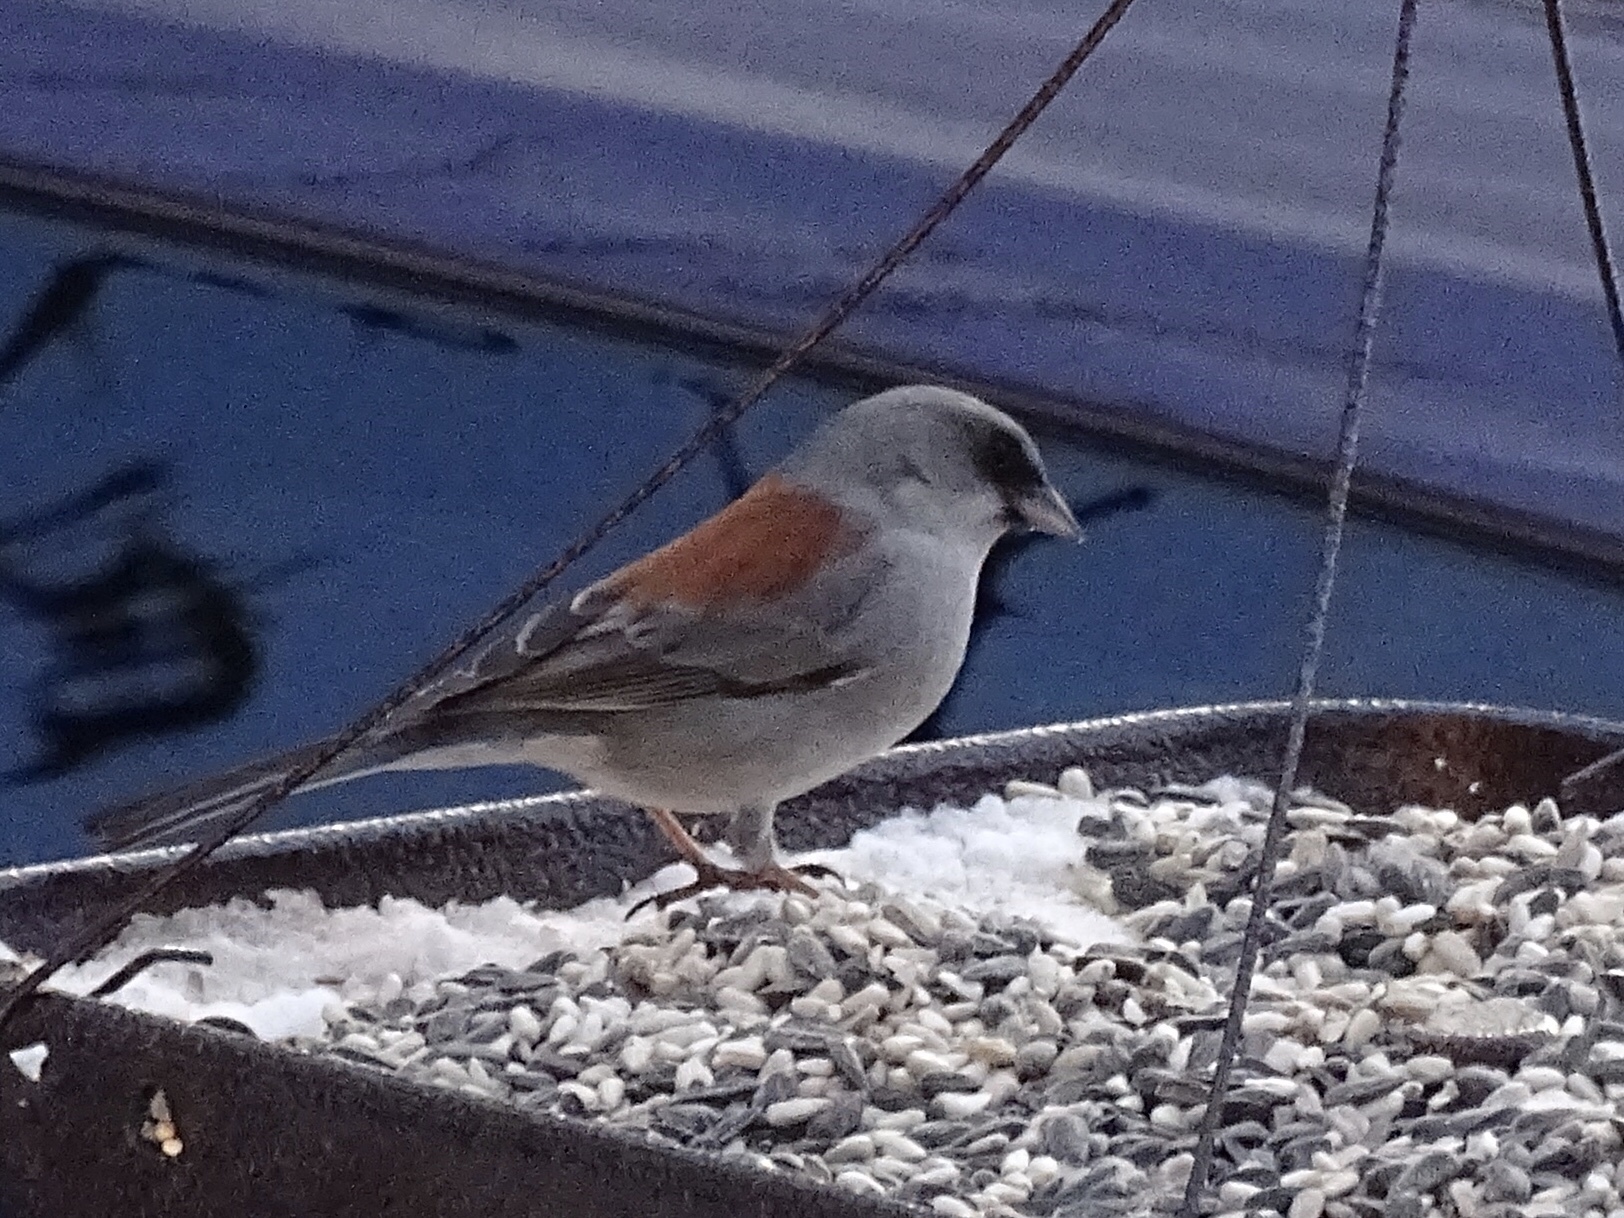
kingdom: Animalia
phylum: Chordata
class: Aves
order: Passeriformes
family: Passerellidae
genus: Junco
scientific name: Junco hyemalis
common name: Dark-eyed junco
